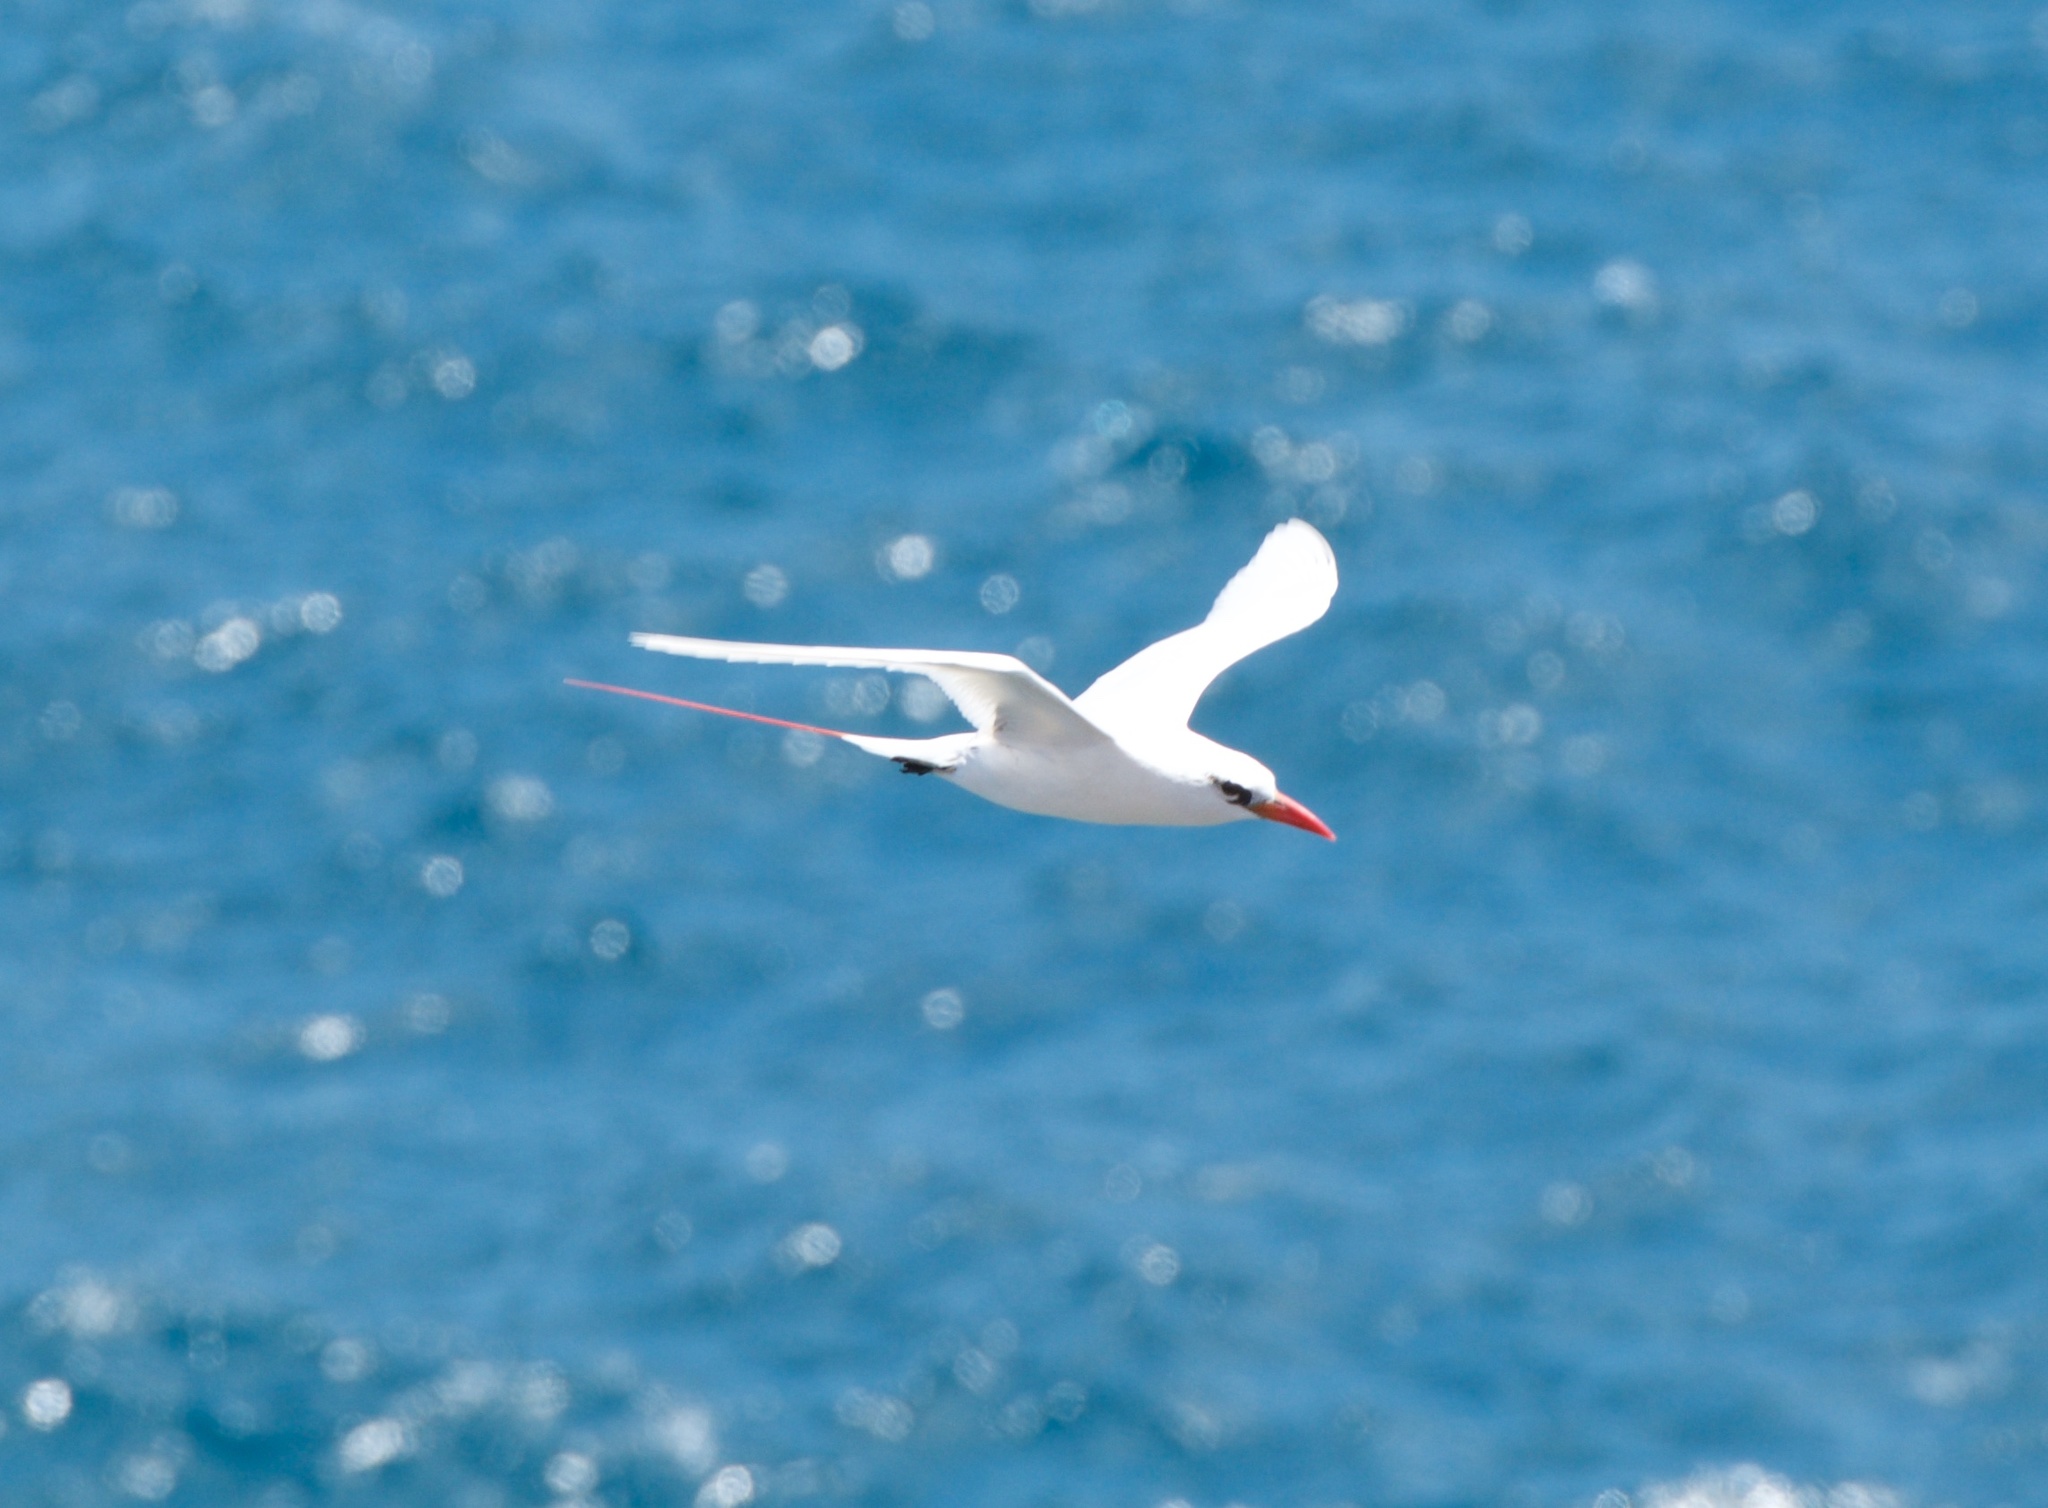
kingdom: Animalia
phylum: Chordata
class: Aves
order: Phaethontiformes
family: Phaethontidae
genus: Phaethon
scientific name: Phaethon rubricauda
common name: Red-tailed tropicbird
